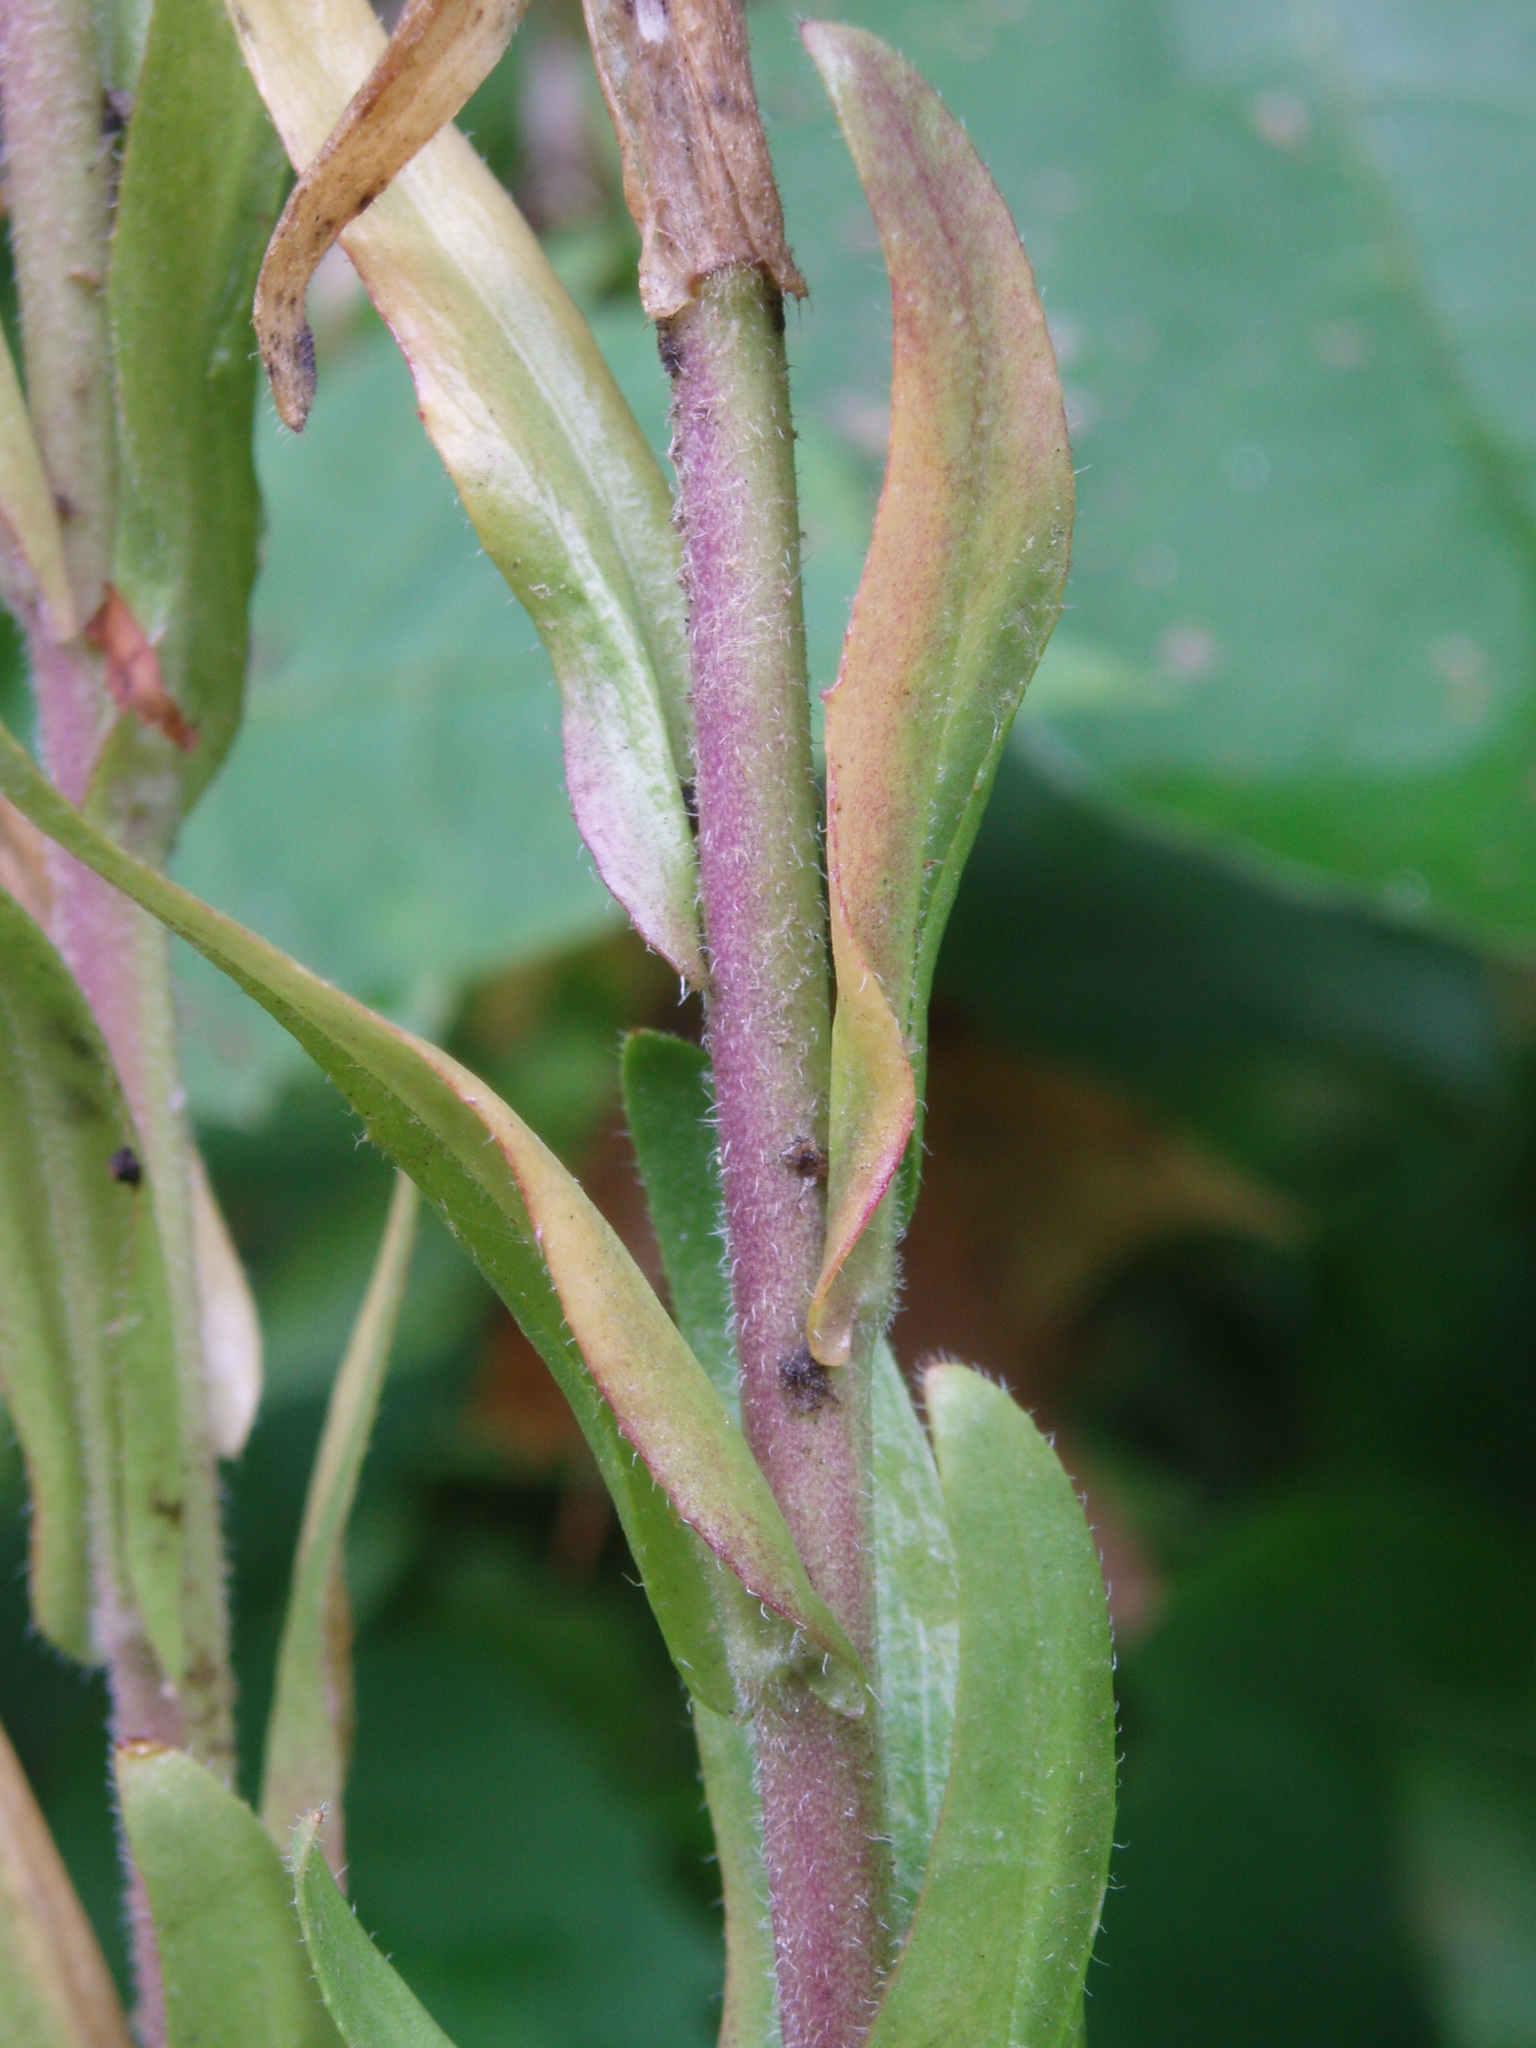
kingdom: Plantae
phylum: Tracheophyta
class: Magnoliopsida
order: Brassicales
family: Brassicaceae
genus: Arabis
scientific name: Arabis adpressipilis
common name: Soft-haired rockcress
